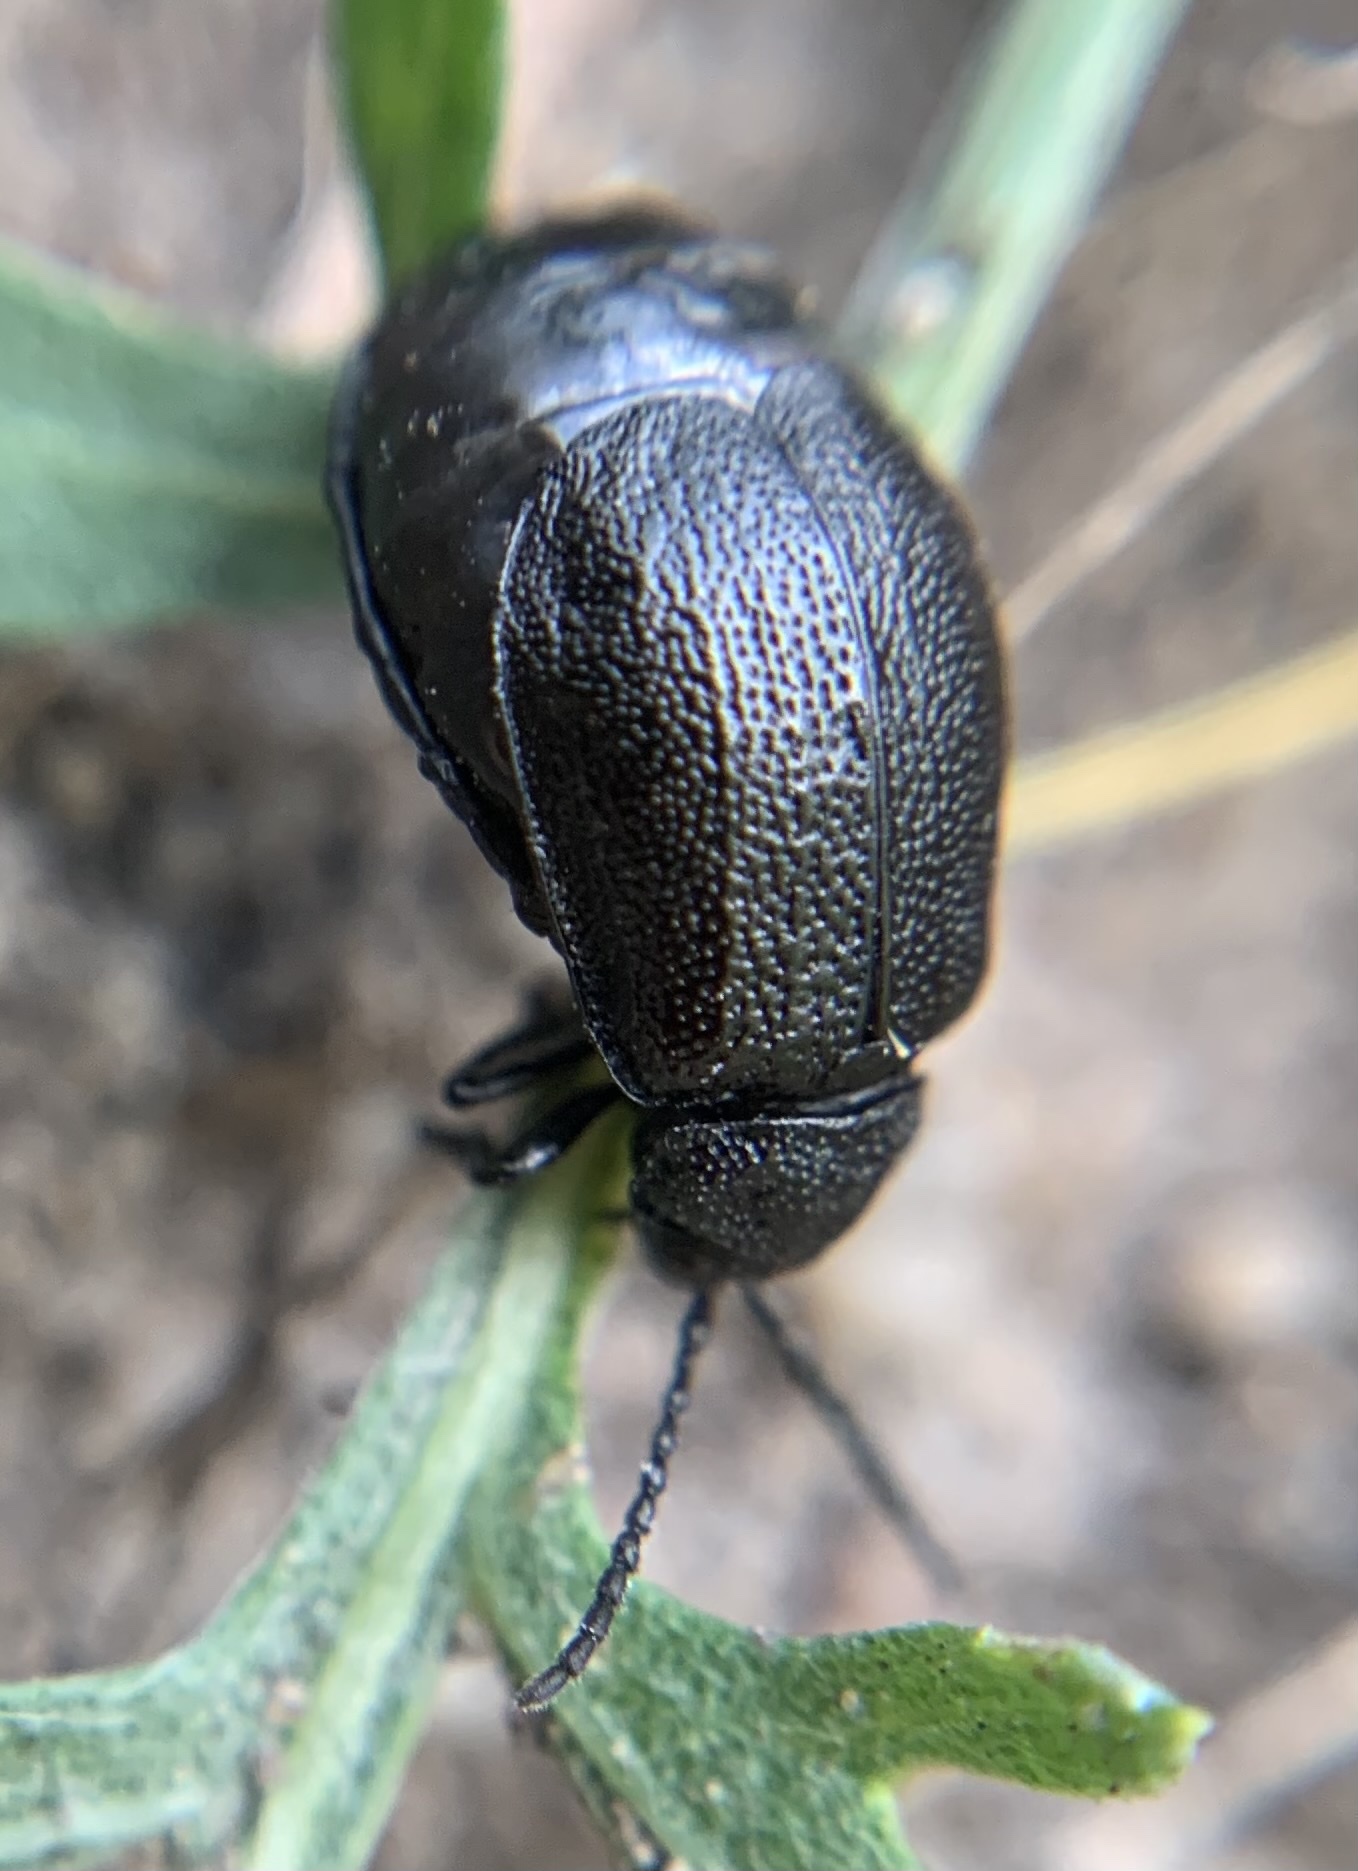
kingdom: Animalia
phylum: Arthropoda
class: Insecta
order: Coleoptera
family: Chrysomelidae
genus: Galeruca
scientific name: Galeruca tanaceti
